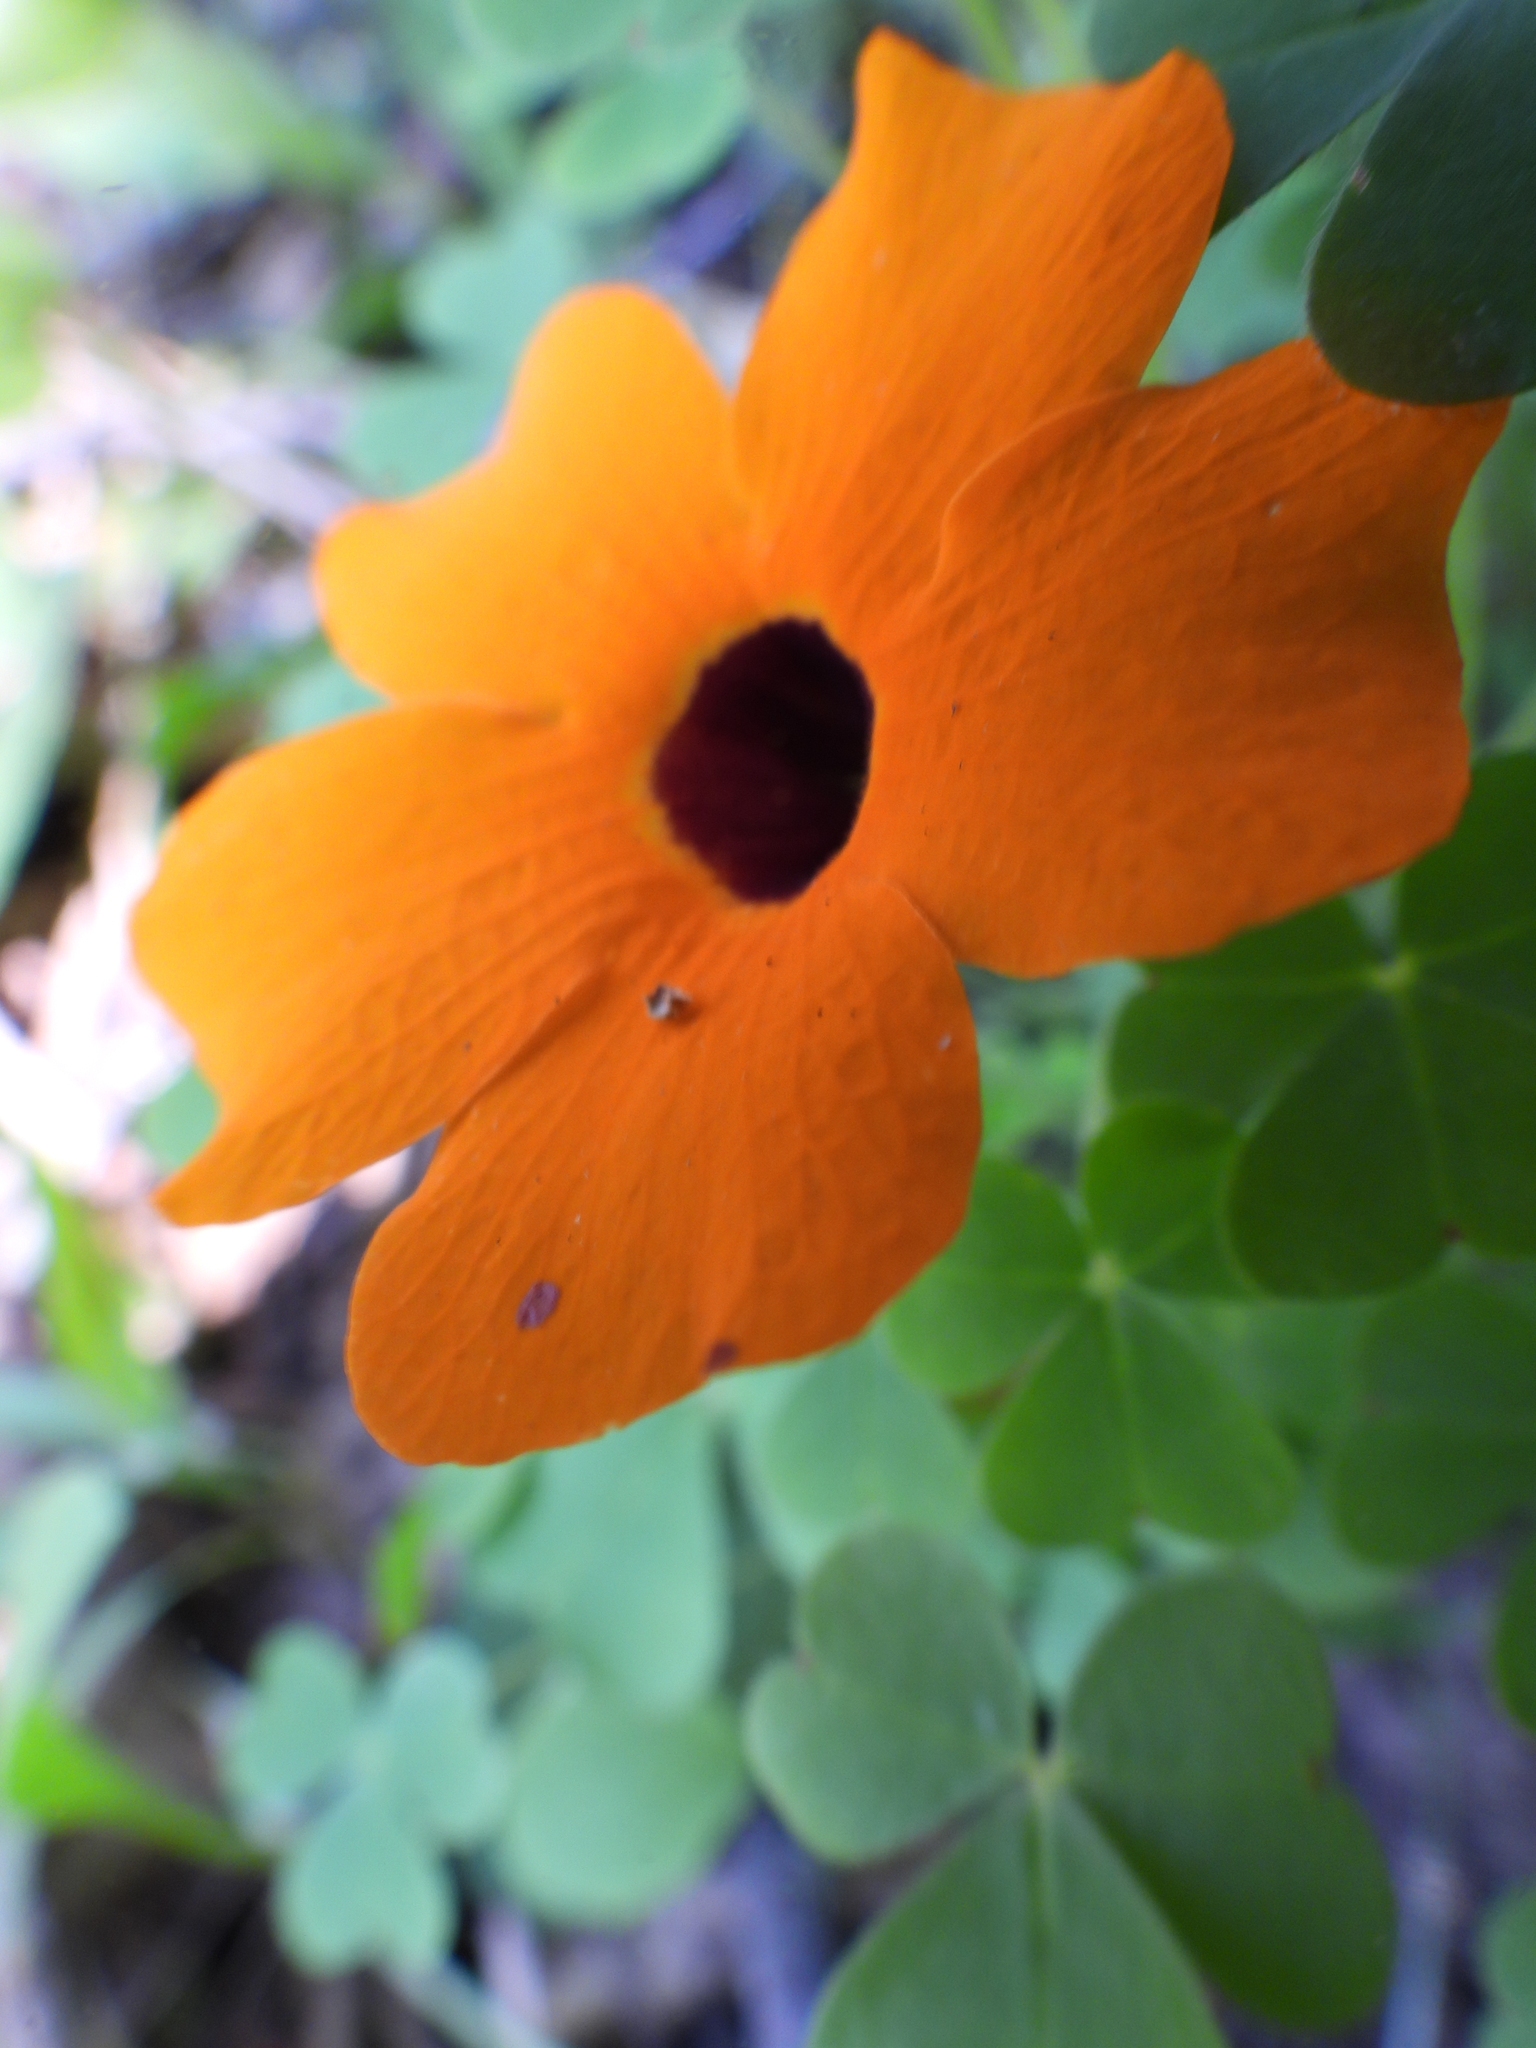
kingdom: Plantae
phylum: Tracheophyta
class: Magnoliopsida
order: Lamiales
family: Acanthaceae
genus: Thunbergia
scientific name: Thunbergia alata
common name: Blackeyed susan vine
